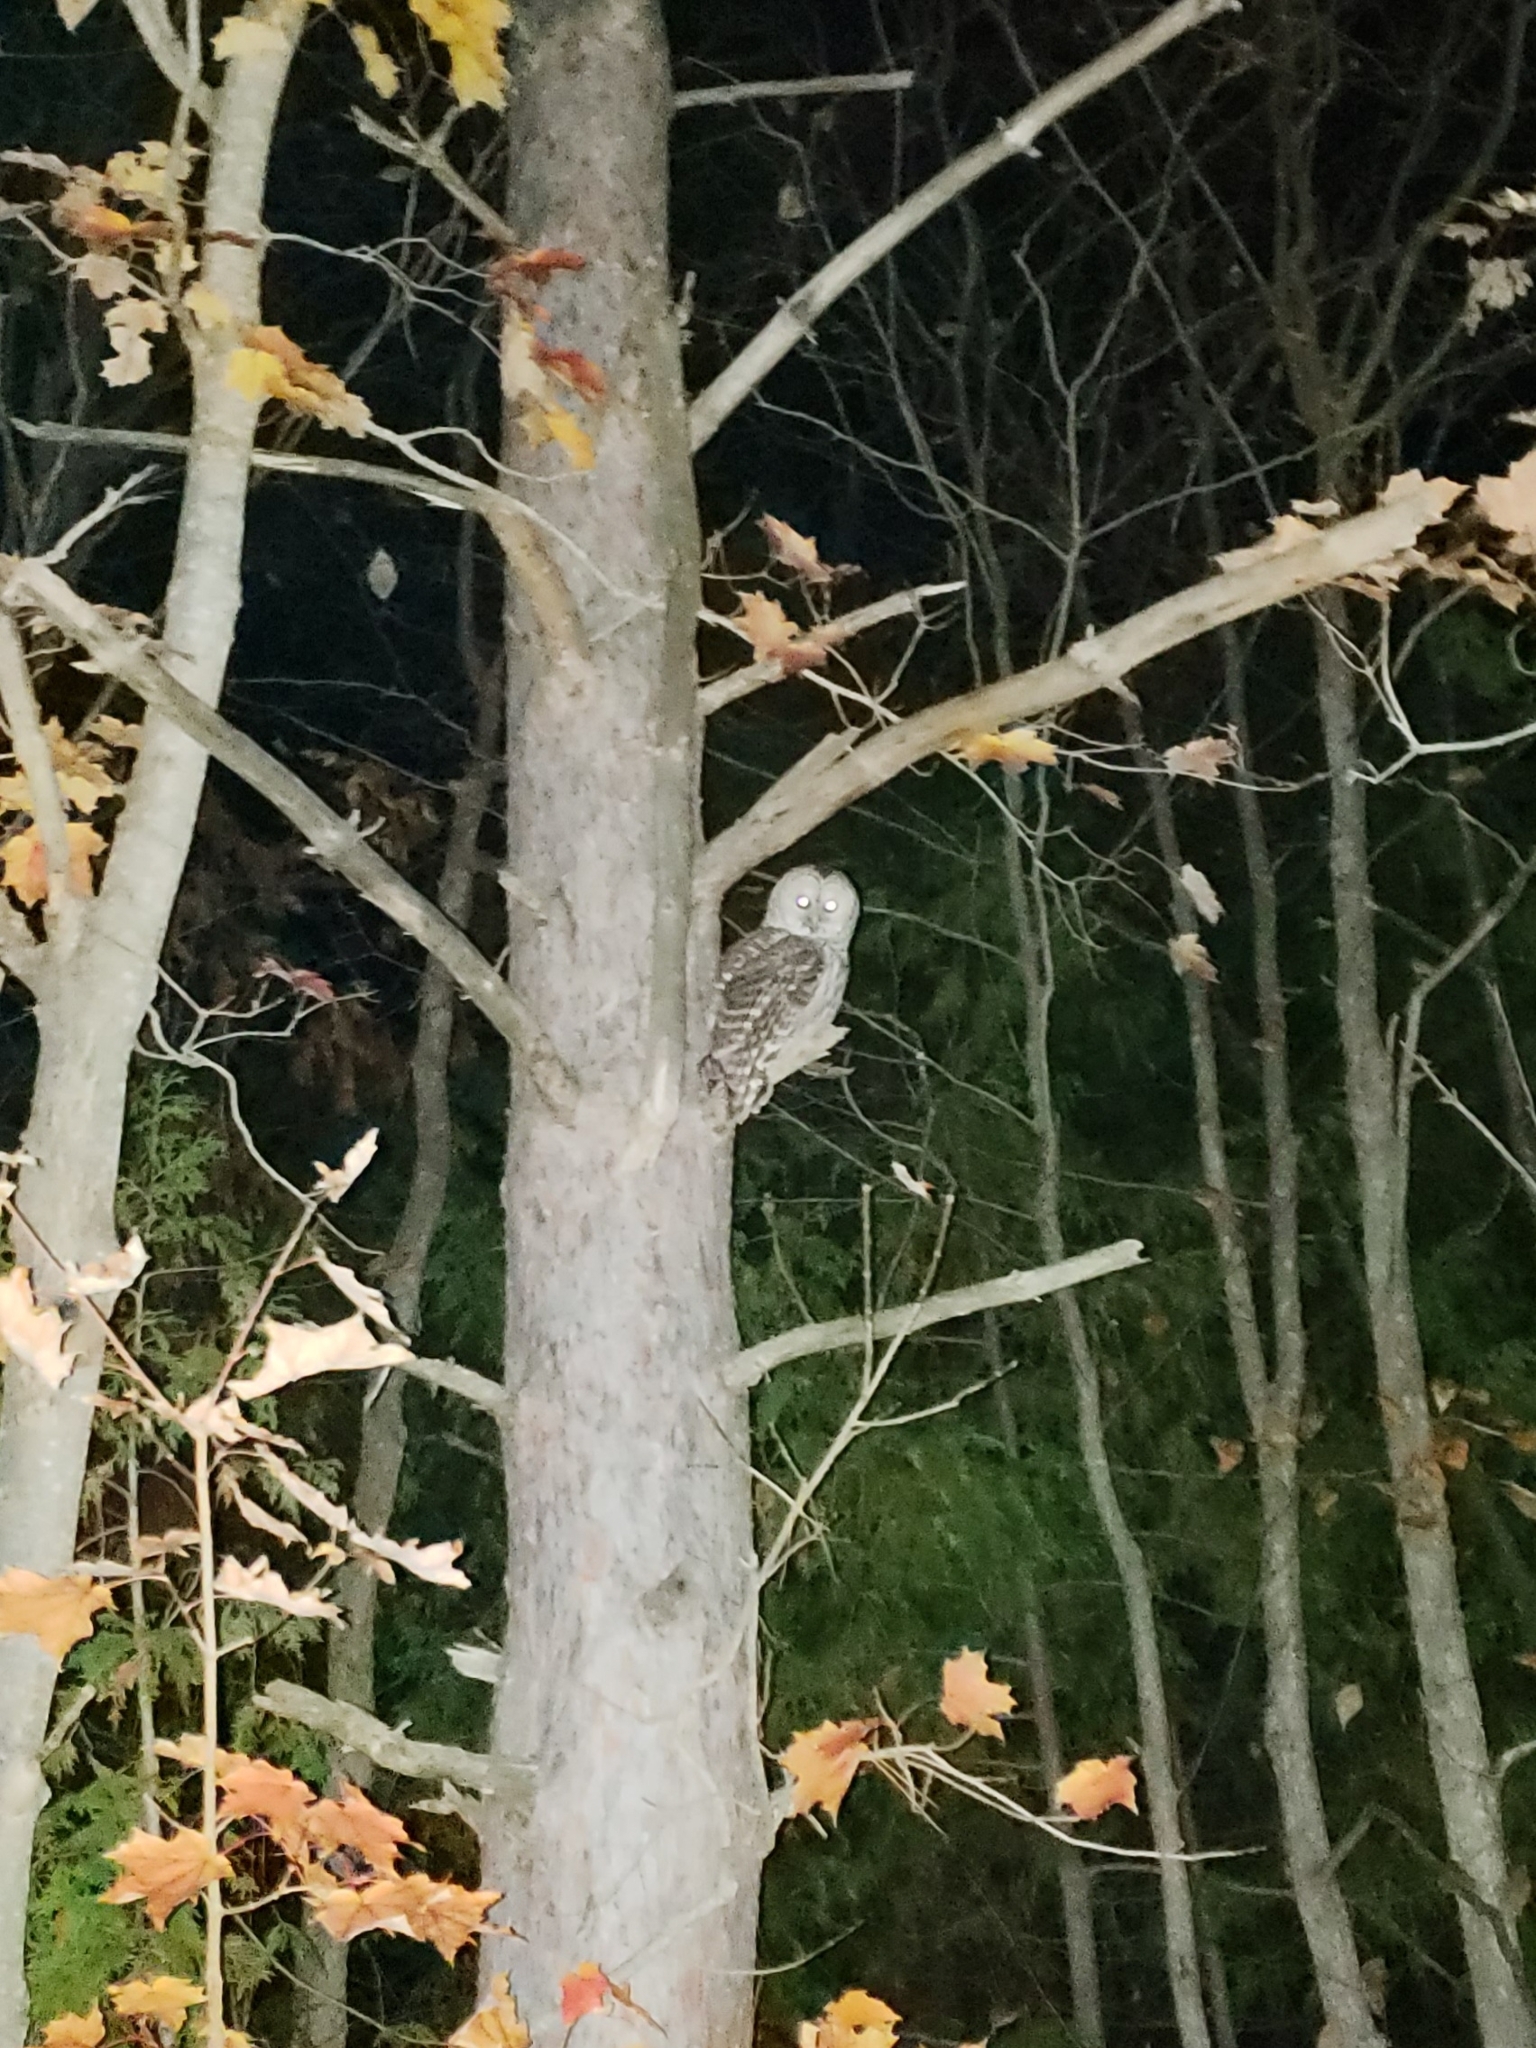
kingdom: Animalia
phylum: Chordata
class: Aves
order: Strigiformes
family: Strigidae
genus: Strix
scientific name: Strix varia
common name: Barred owl
